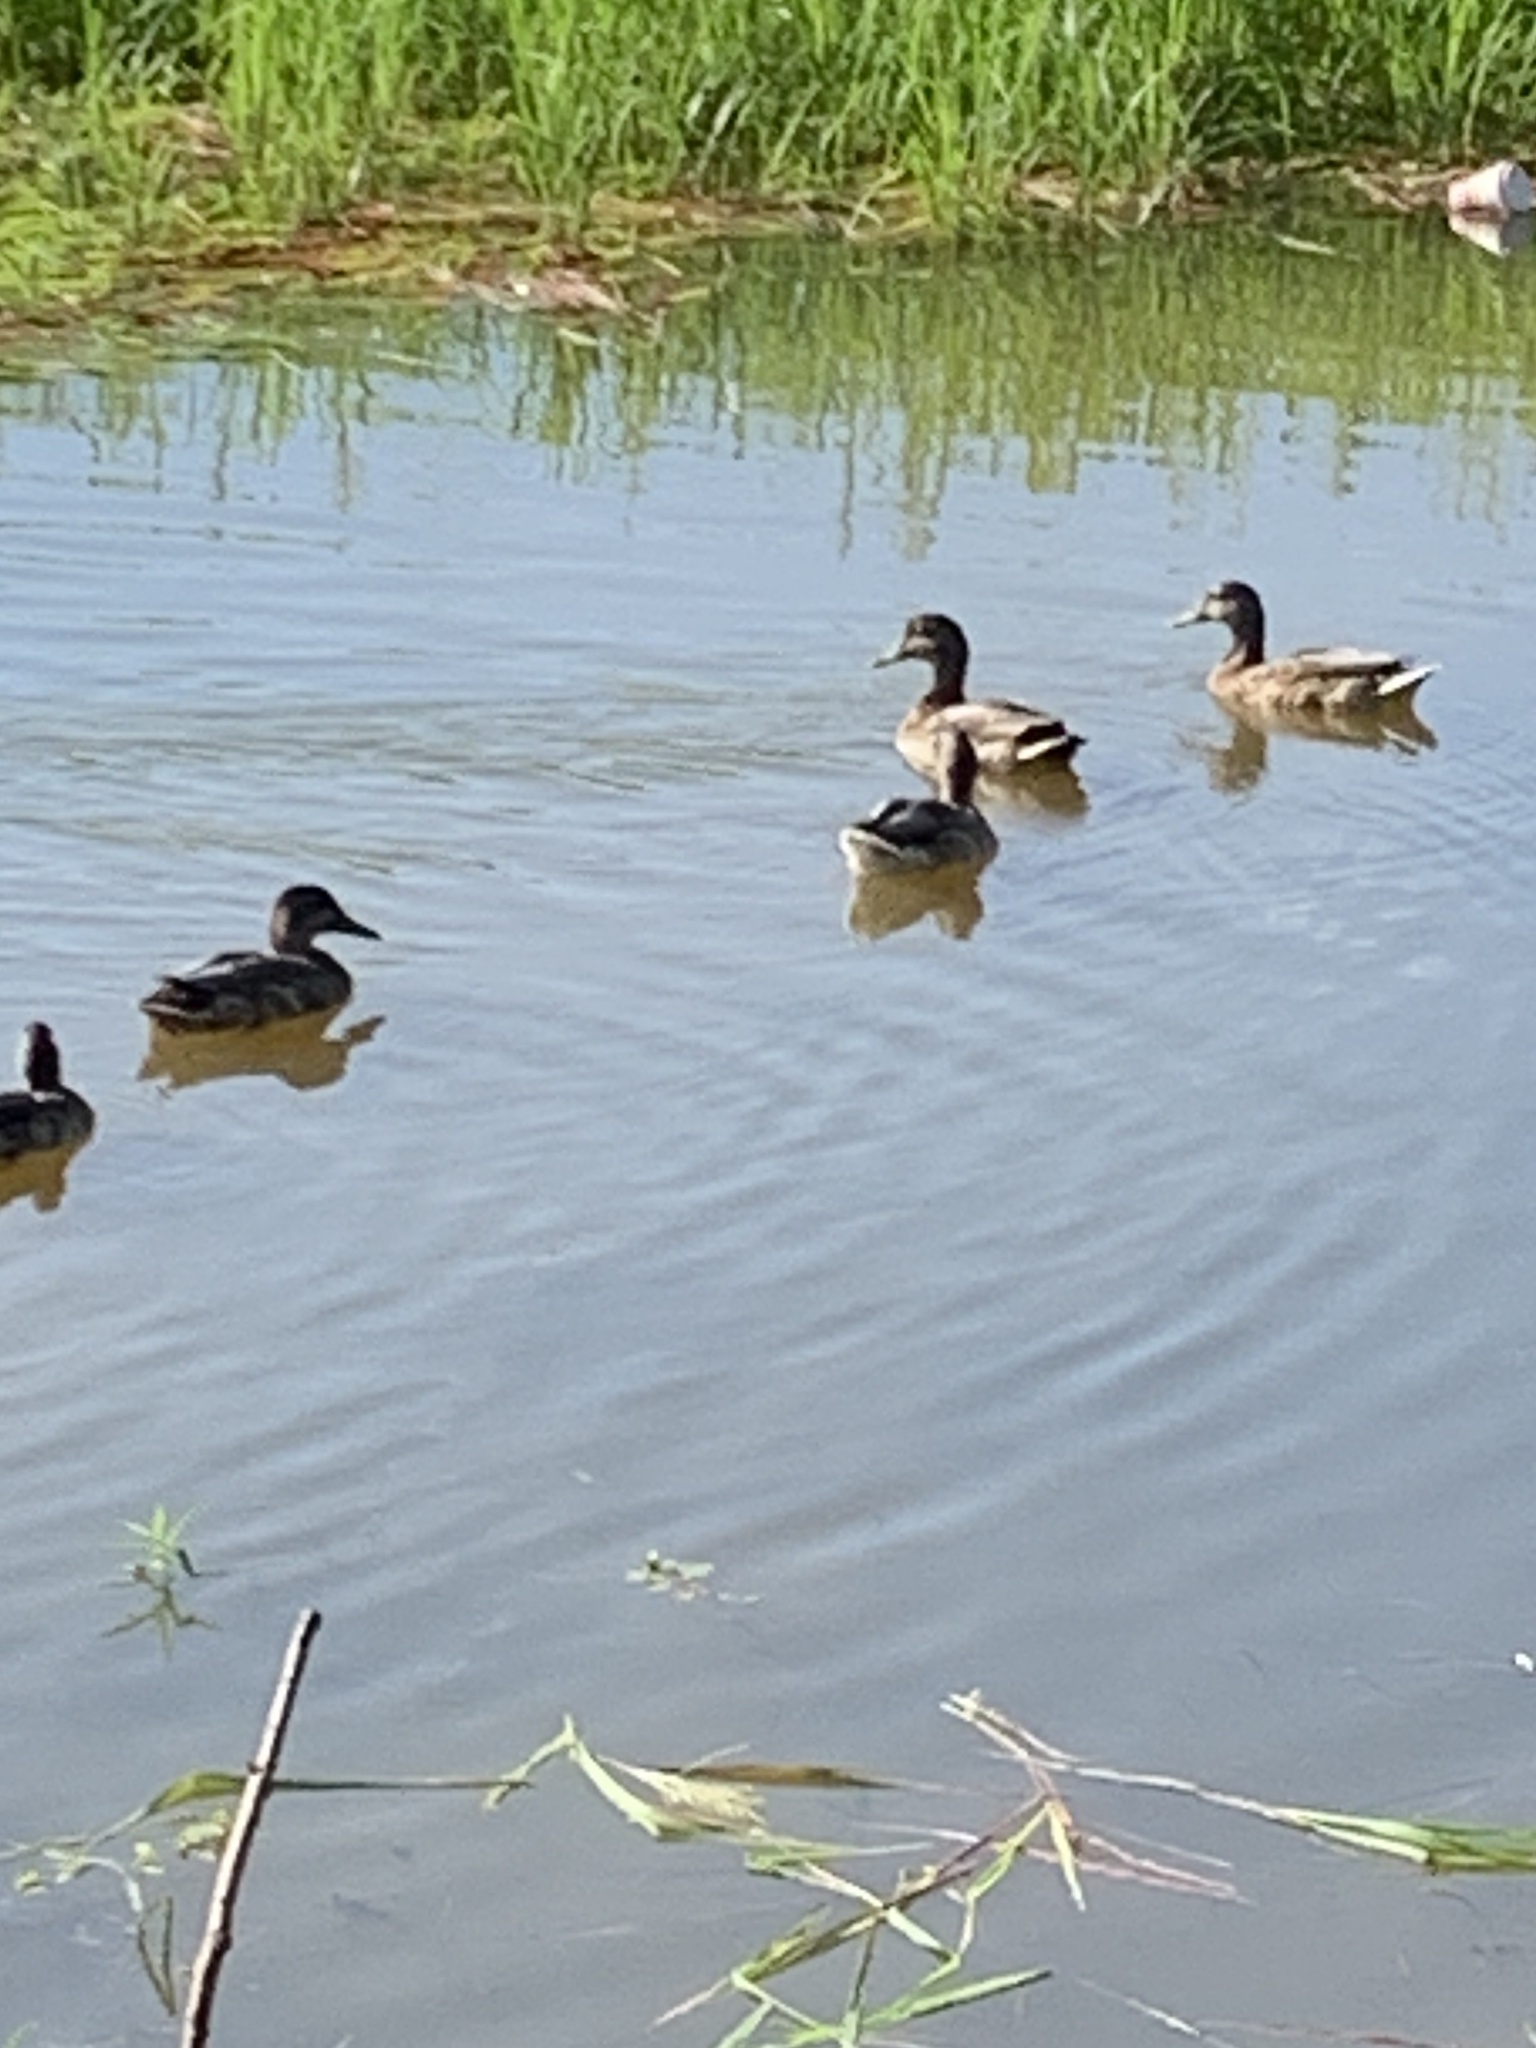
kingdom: Animalia
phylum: Chordata
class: Aves
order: Anseriformes
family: Anatidae
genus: Anas
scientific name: Anas platyrhynchos
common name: Mallard
